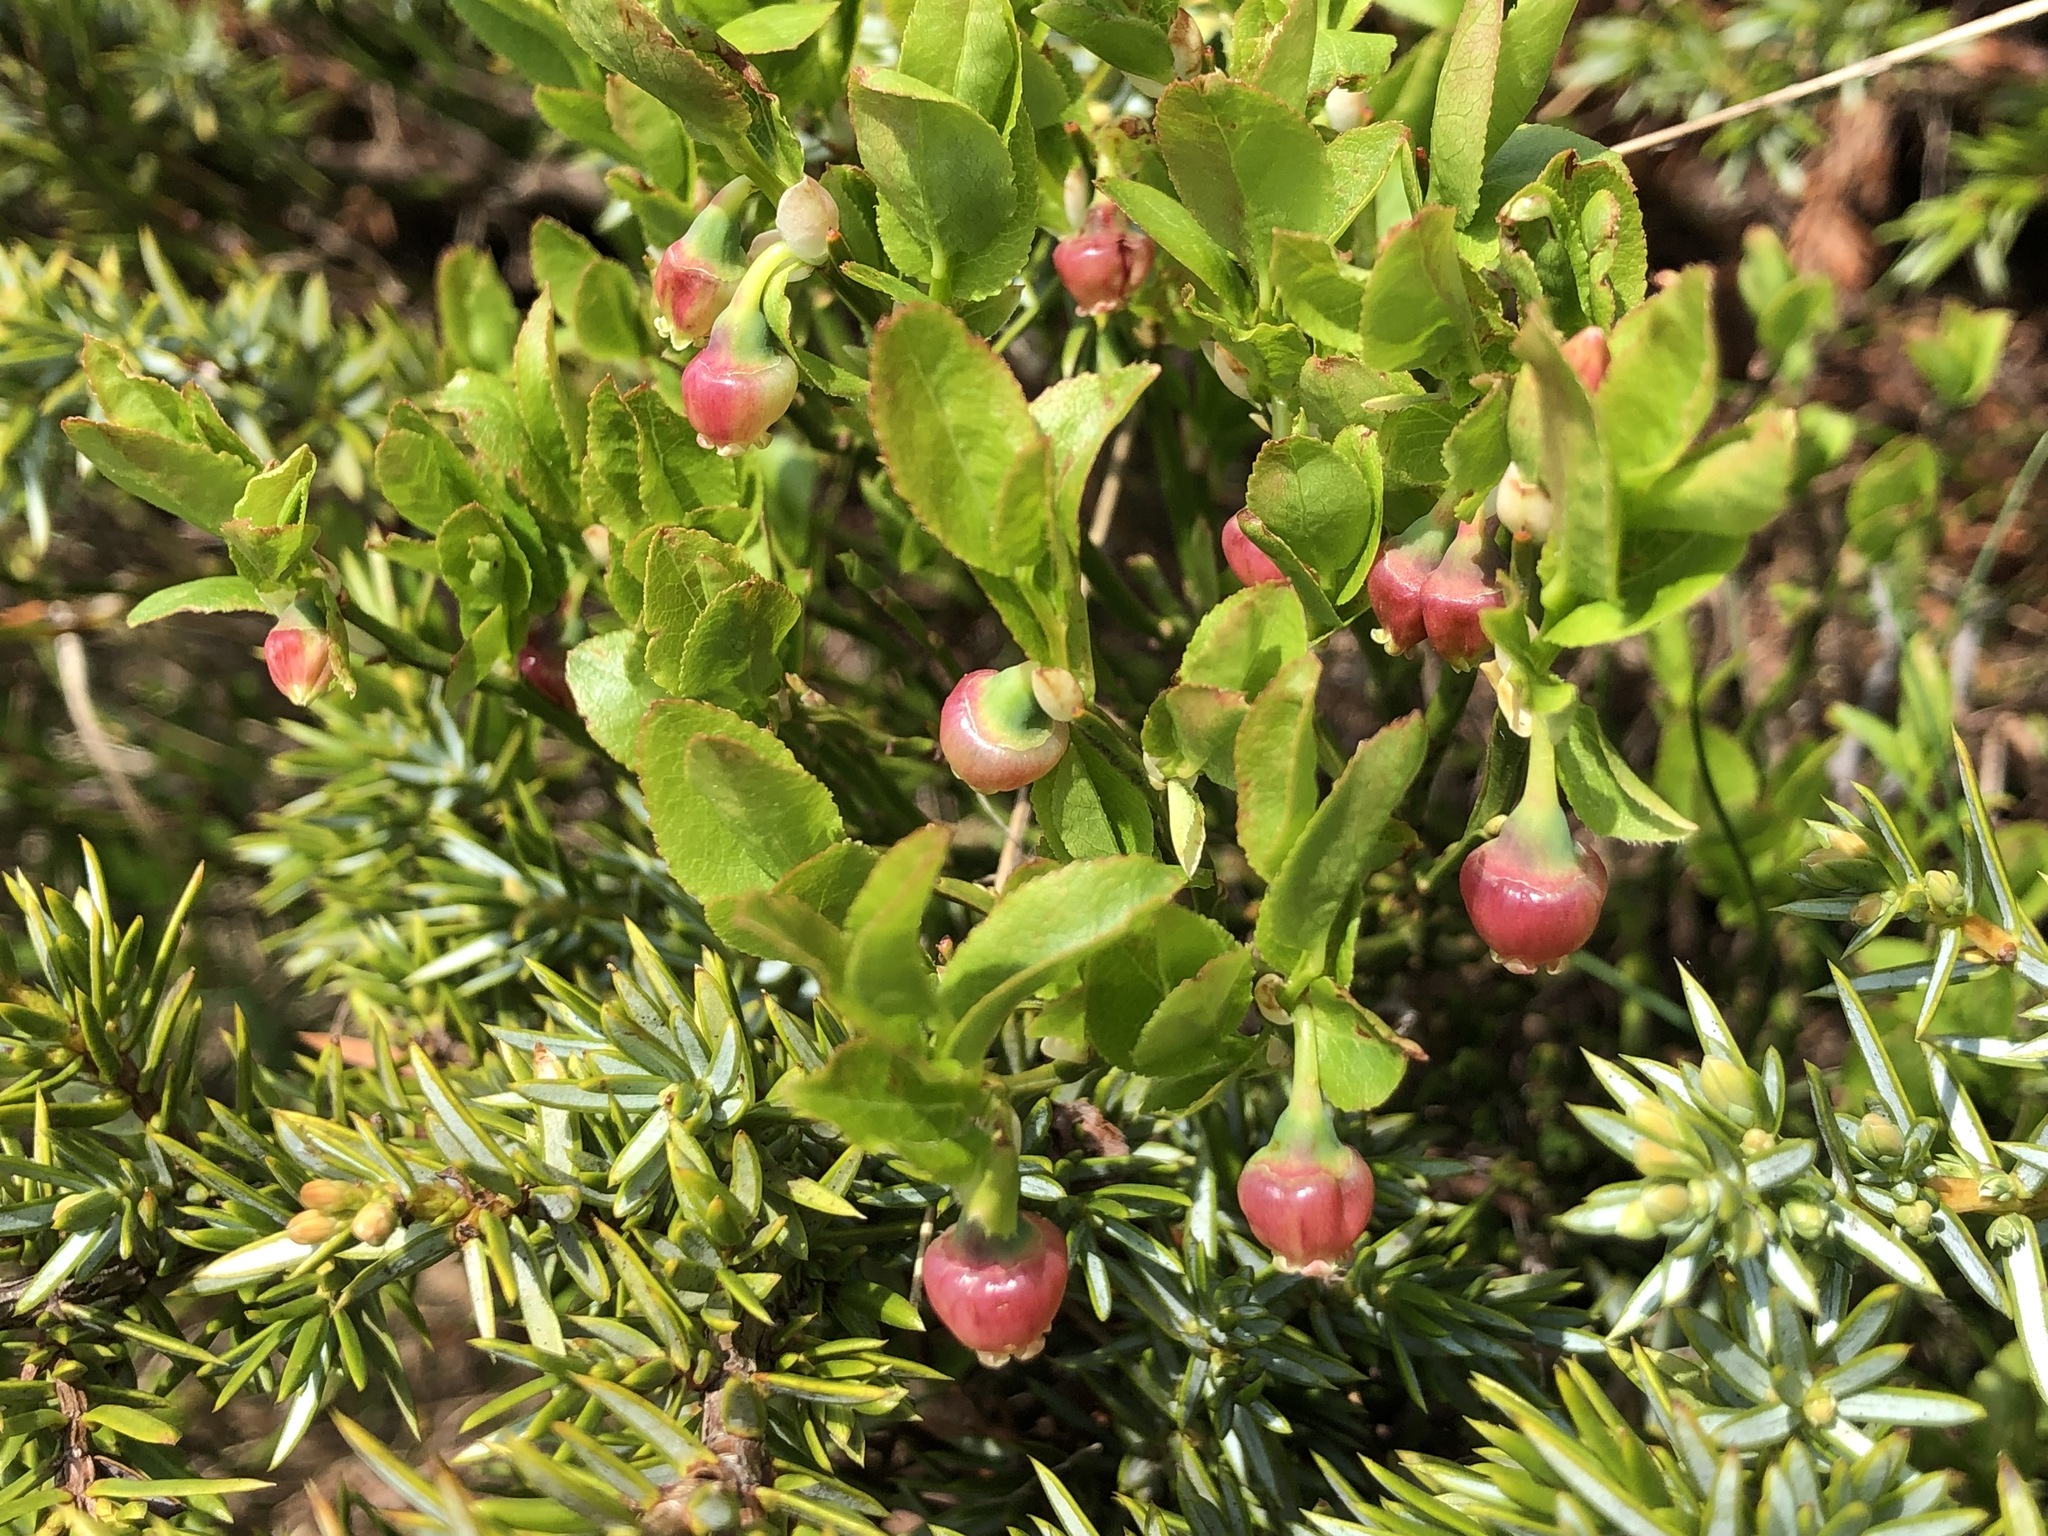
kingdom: Plantae
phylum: Tracheophyta
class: Magnoliopsida
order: Ericales
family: Ericaceae
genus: Vaccinium
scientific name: Vaccinium myrtillus
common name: Bilberry
